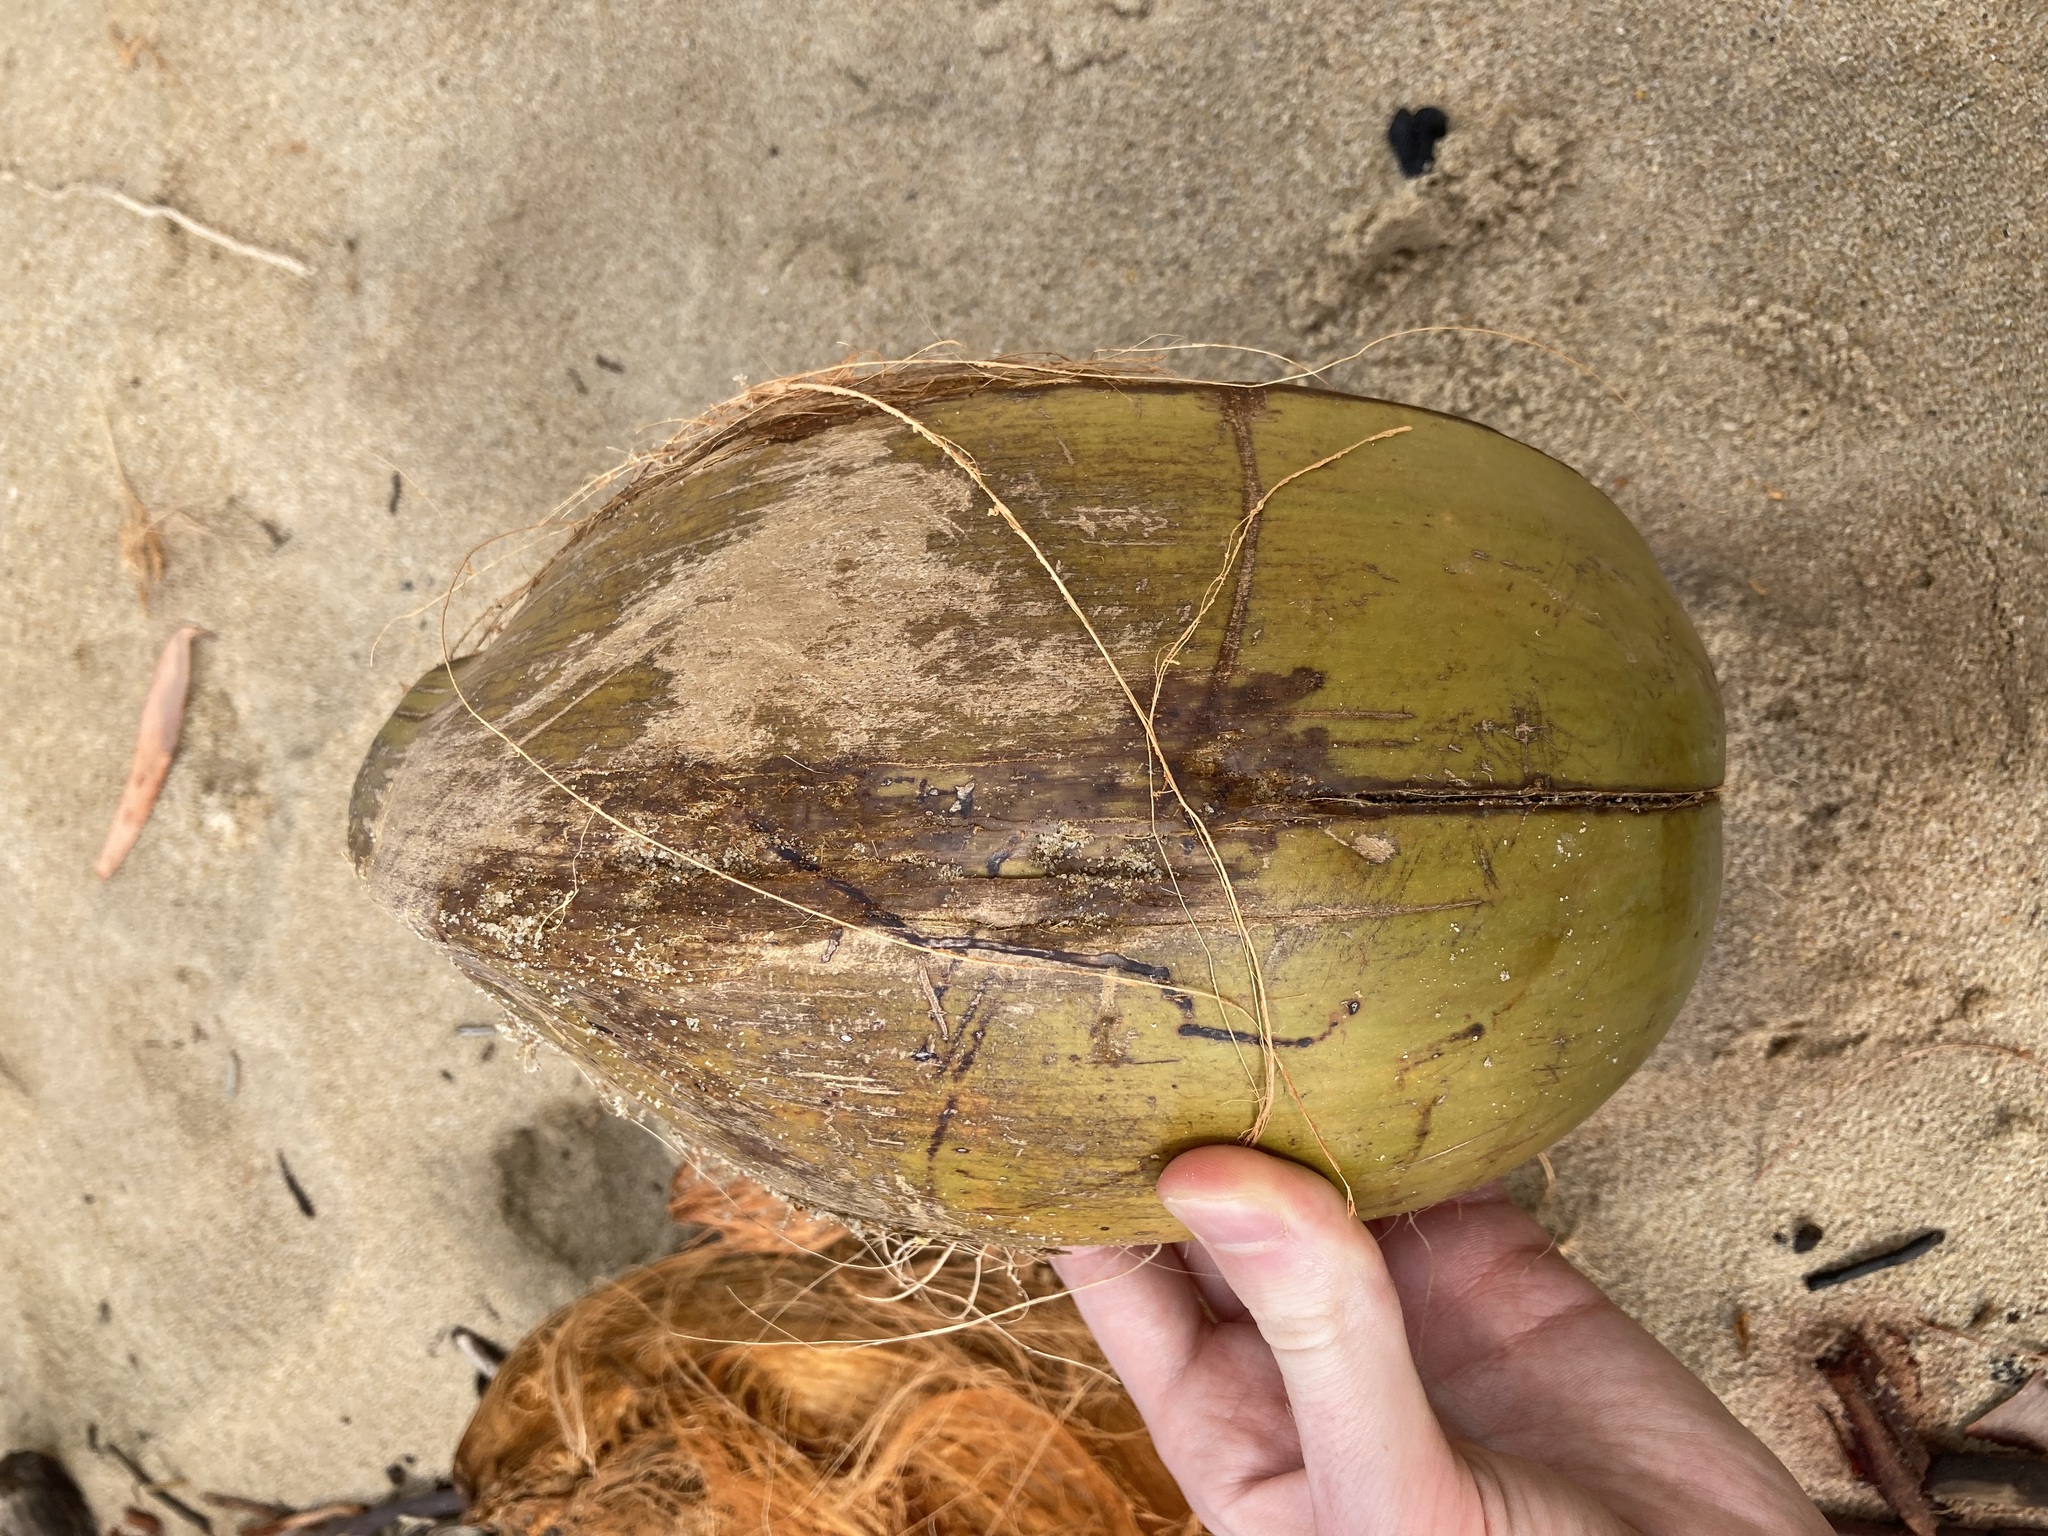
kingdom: Plantae
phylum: Tracheophyta
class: Liliopsida
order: Arecales
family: Arecaceae
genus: Cocos
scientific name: Cocos nucifera
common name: Coconut palm
